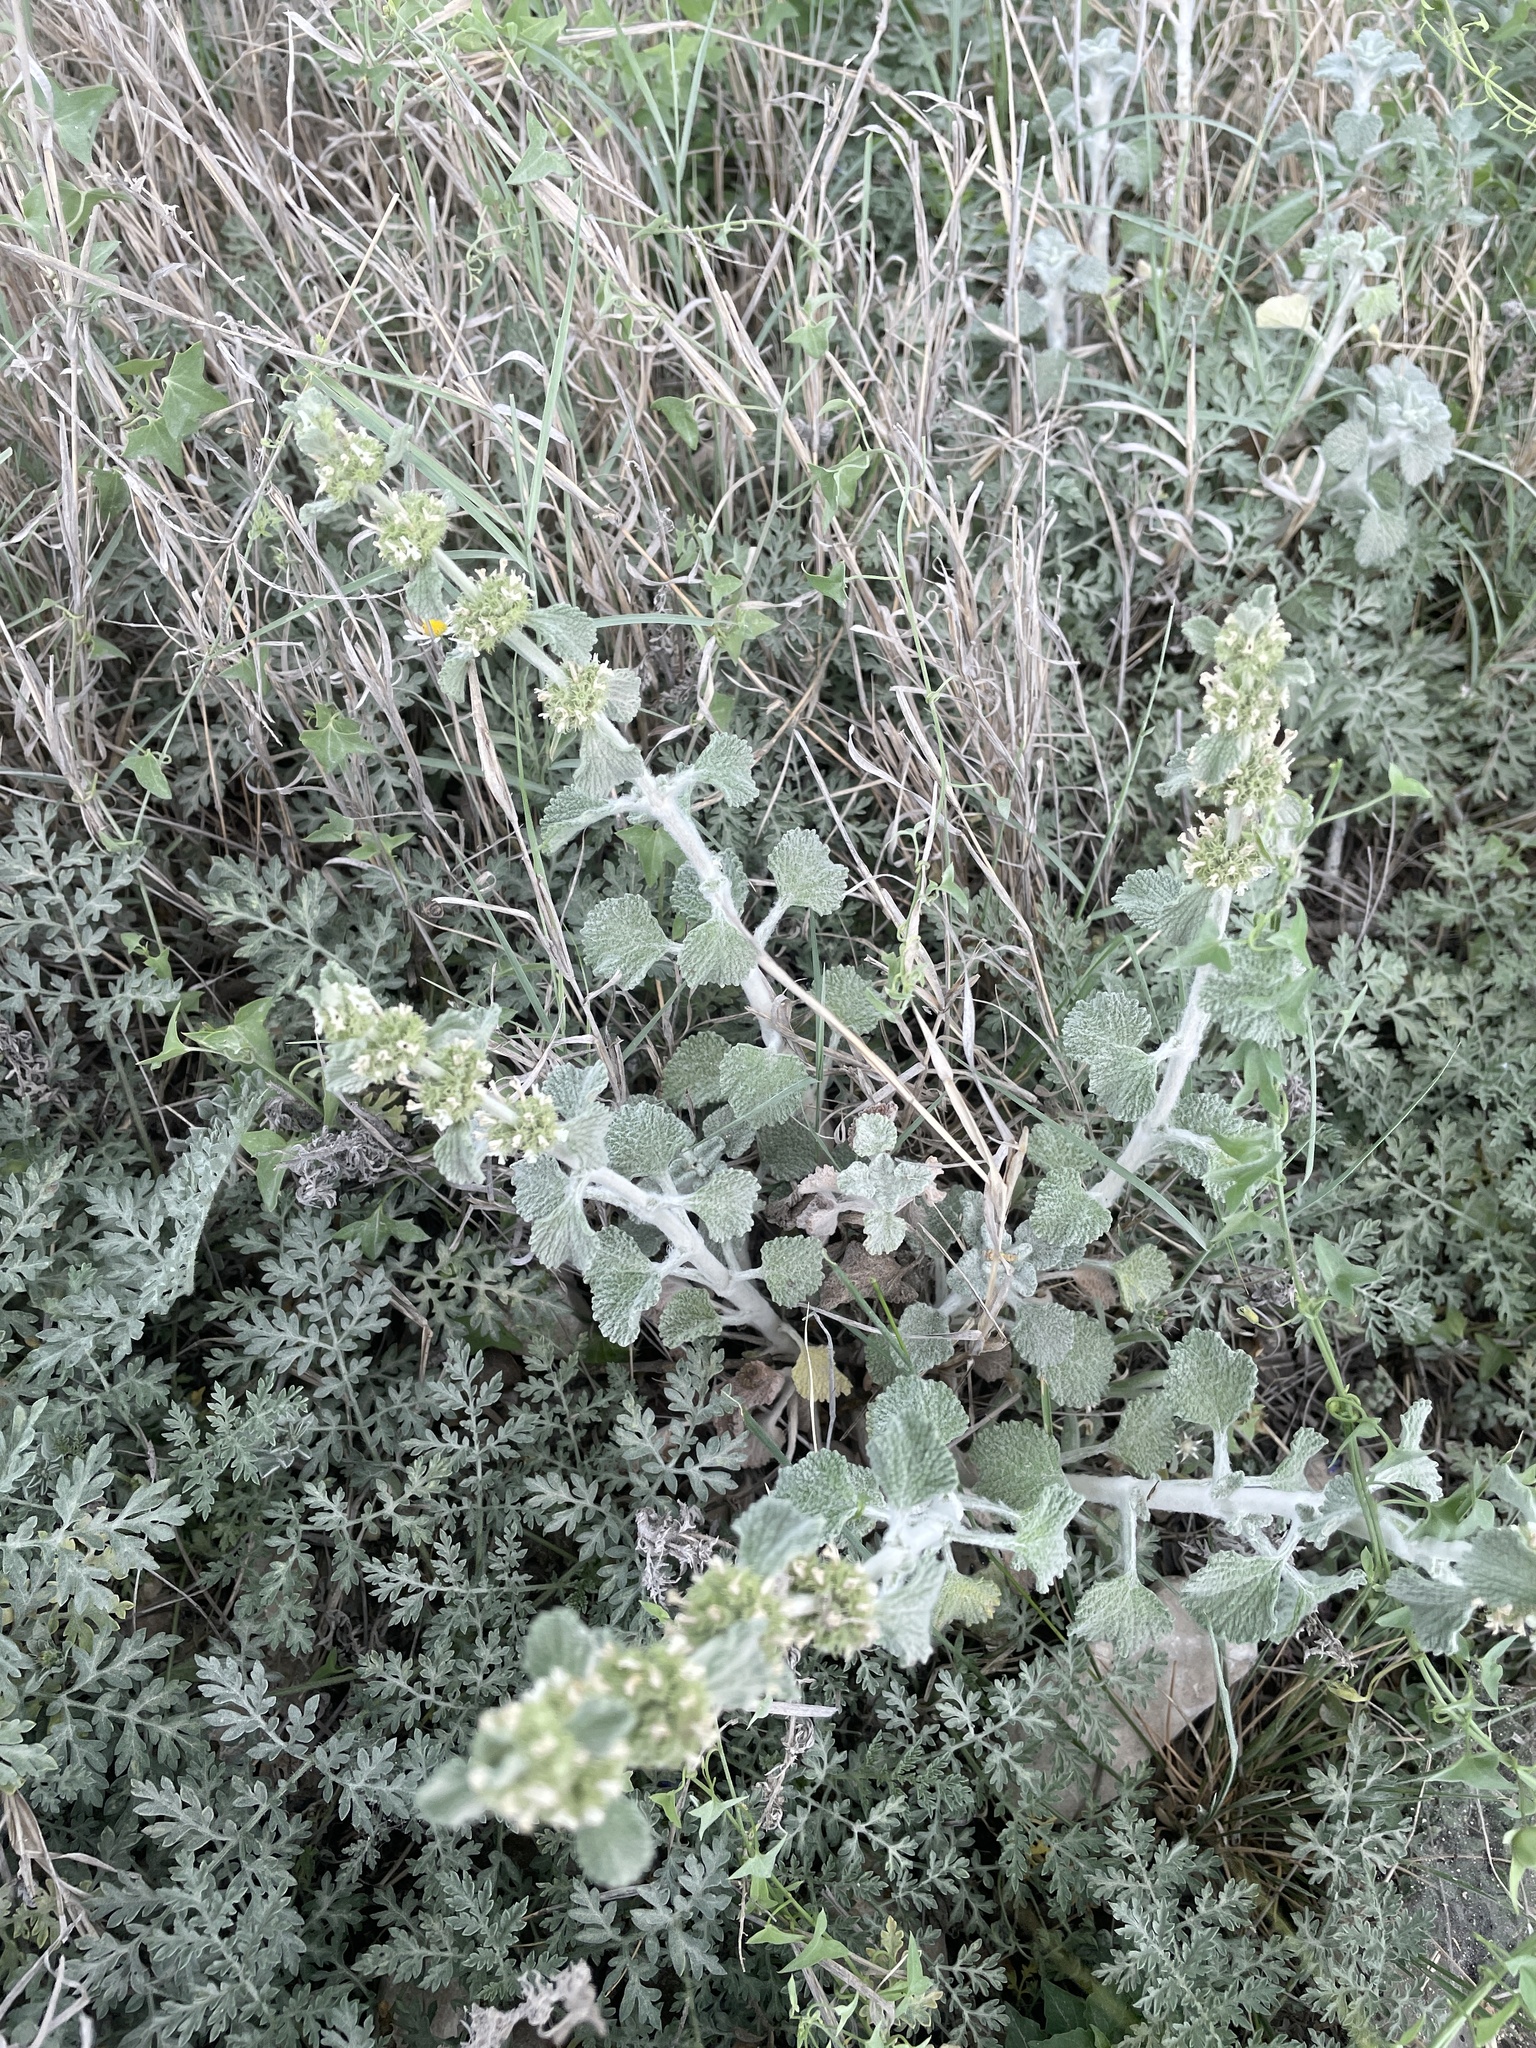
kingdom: Plantae
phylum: Tracheophyta
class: Magnoliopsida
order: Lamiales
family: Lamiaceae
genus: Marrubium
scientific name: Marrubium vulgare
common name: Horehound
